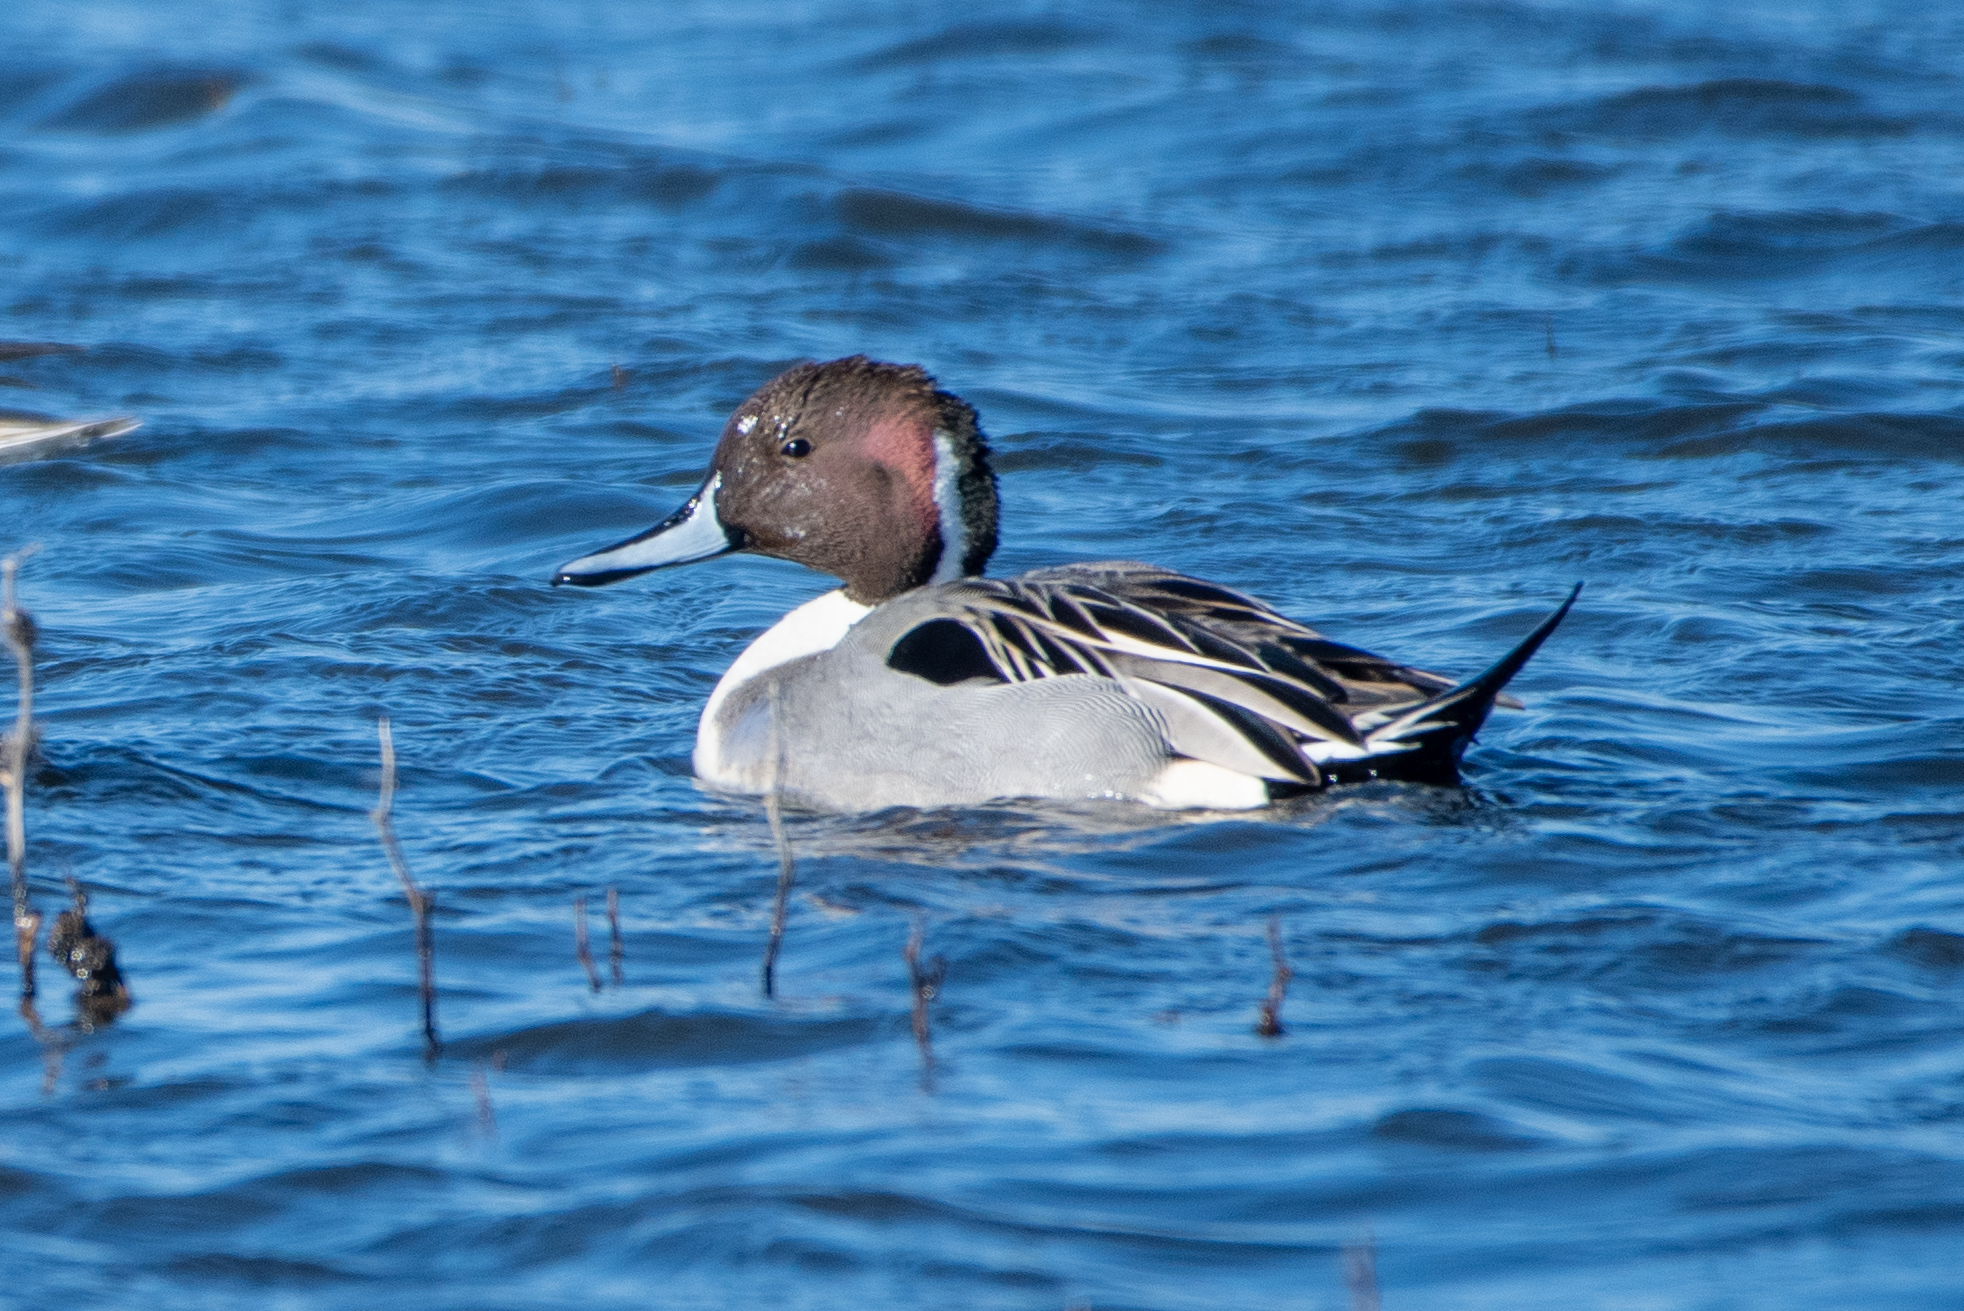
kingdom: Animalia
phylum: Chordata
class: Aves
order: Anseriformes
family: Anatidae
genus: Anas
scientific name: Anas acuta
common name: Northern pintail
